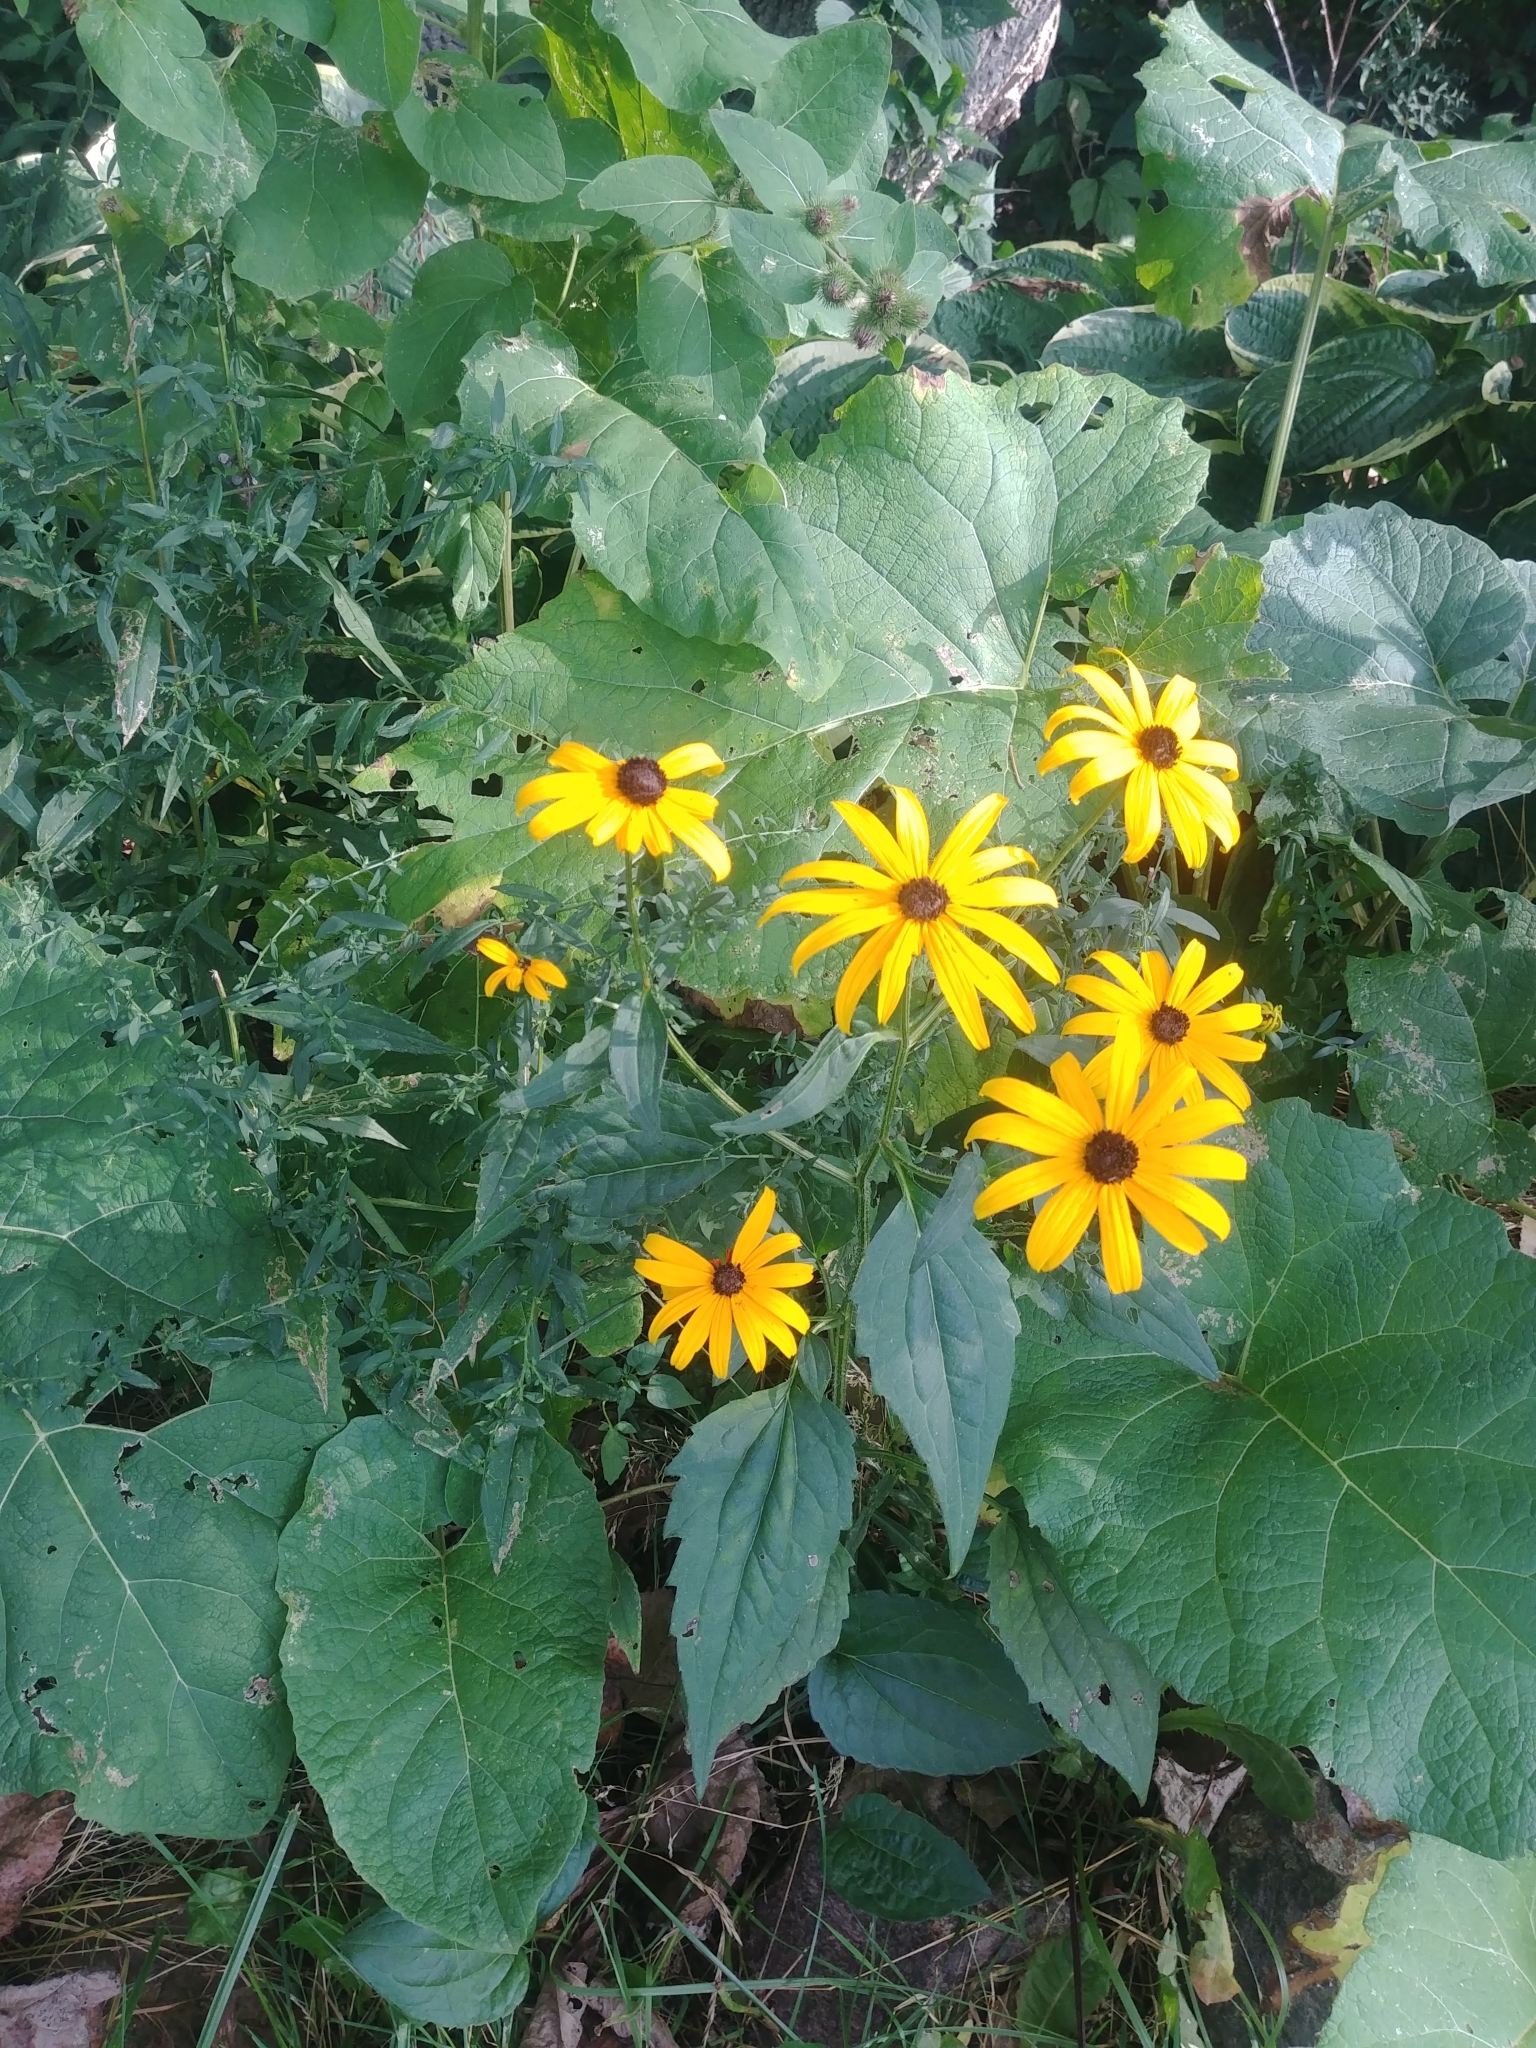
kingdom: Plantae
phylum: Tracheophyta
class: Magnoliopsida
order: Asterales
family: Asteraceae
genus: Rudbeckia
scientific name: Rudbeckia hirta
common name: Black-eyed-susan
